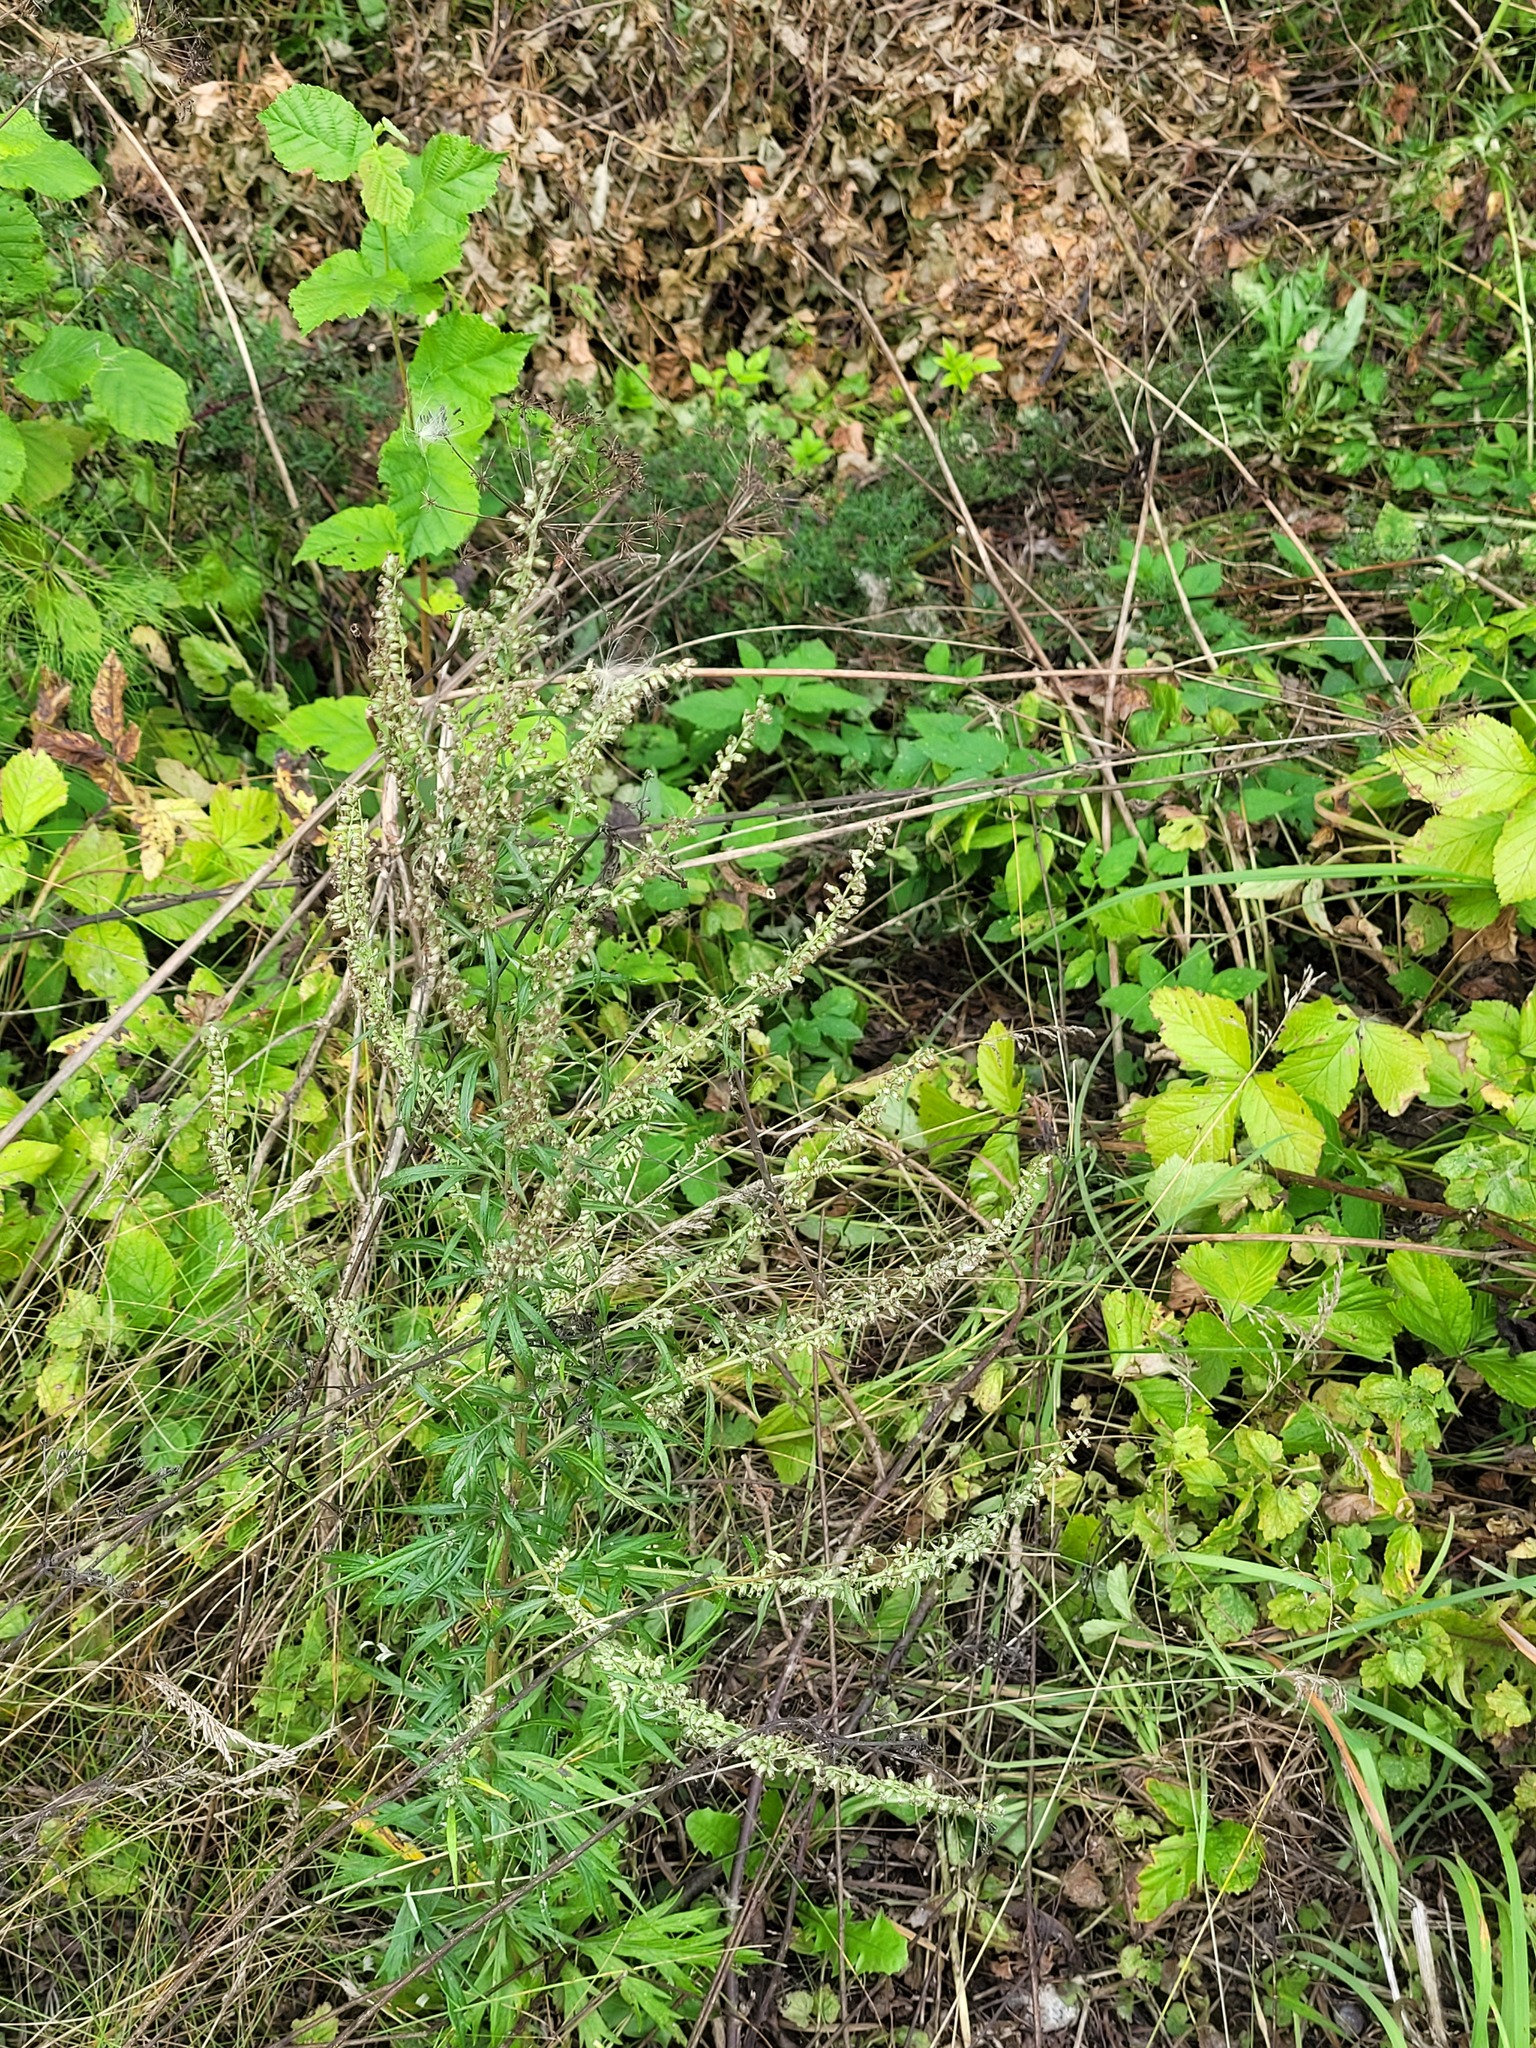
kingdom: Plantae
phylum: Tracheophyta
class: Magnoliopsida
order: Asterales
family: Asteraceae
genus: Artemisia
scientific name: Artemisia vulgaris
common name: Mugwort
